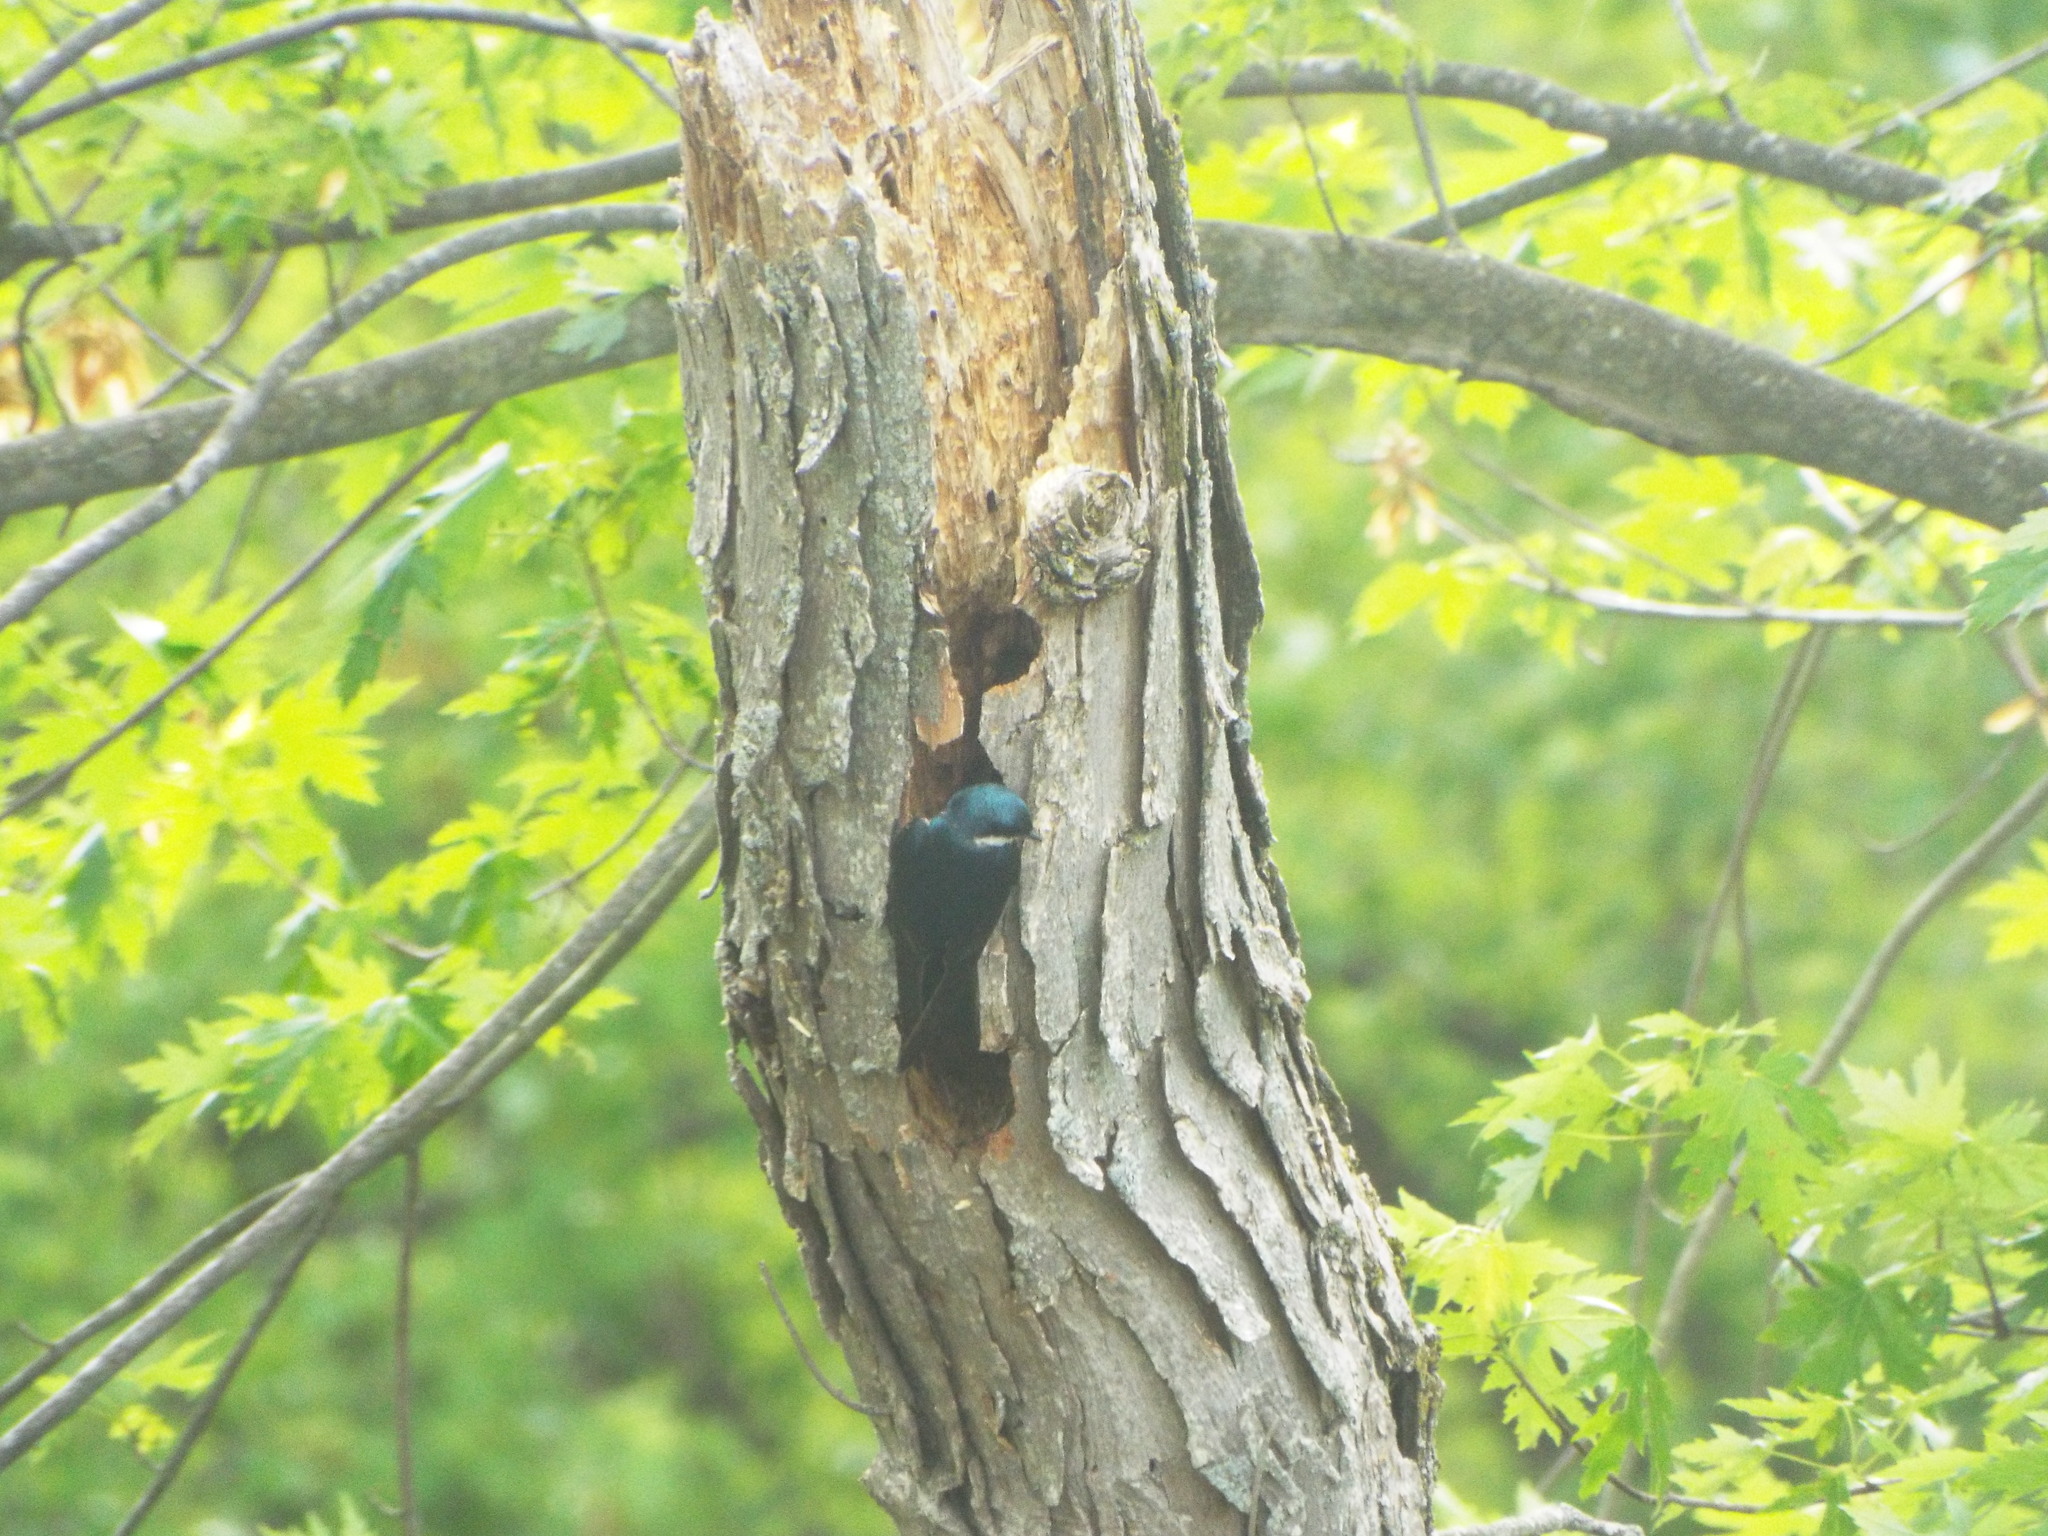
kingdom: Animalia
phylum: Chordata
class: Aves
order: Passeriformes
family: Hirundinidae
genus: Tachycineta
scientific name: Tachycineta bicolor
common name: Tree swallow
